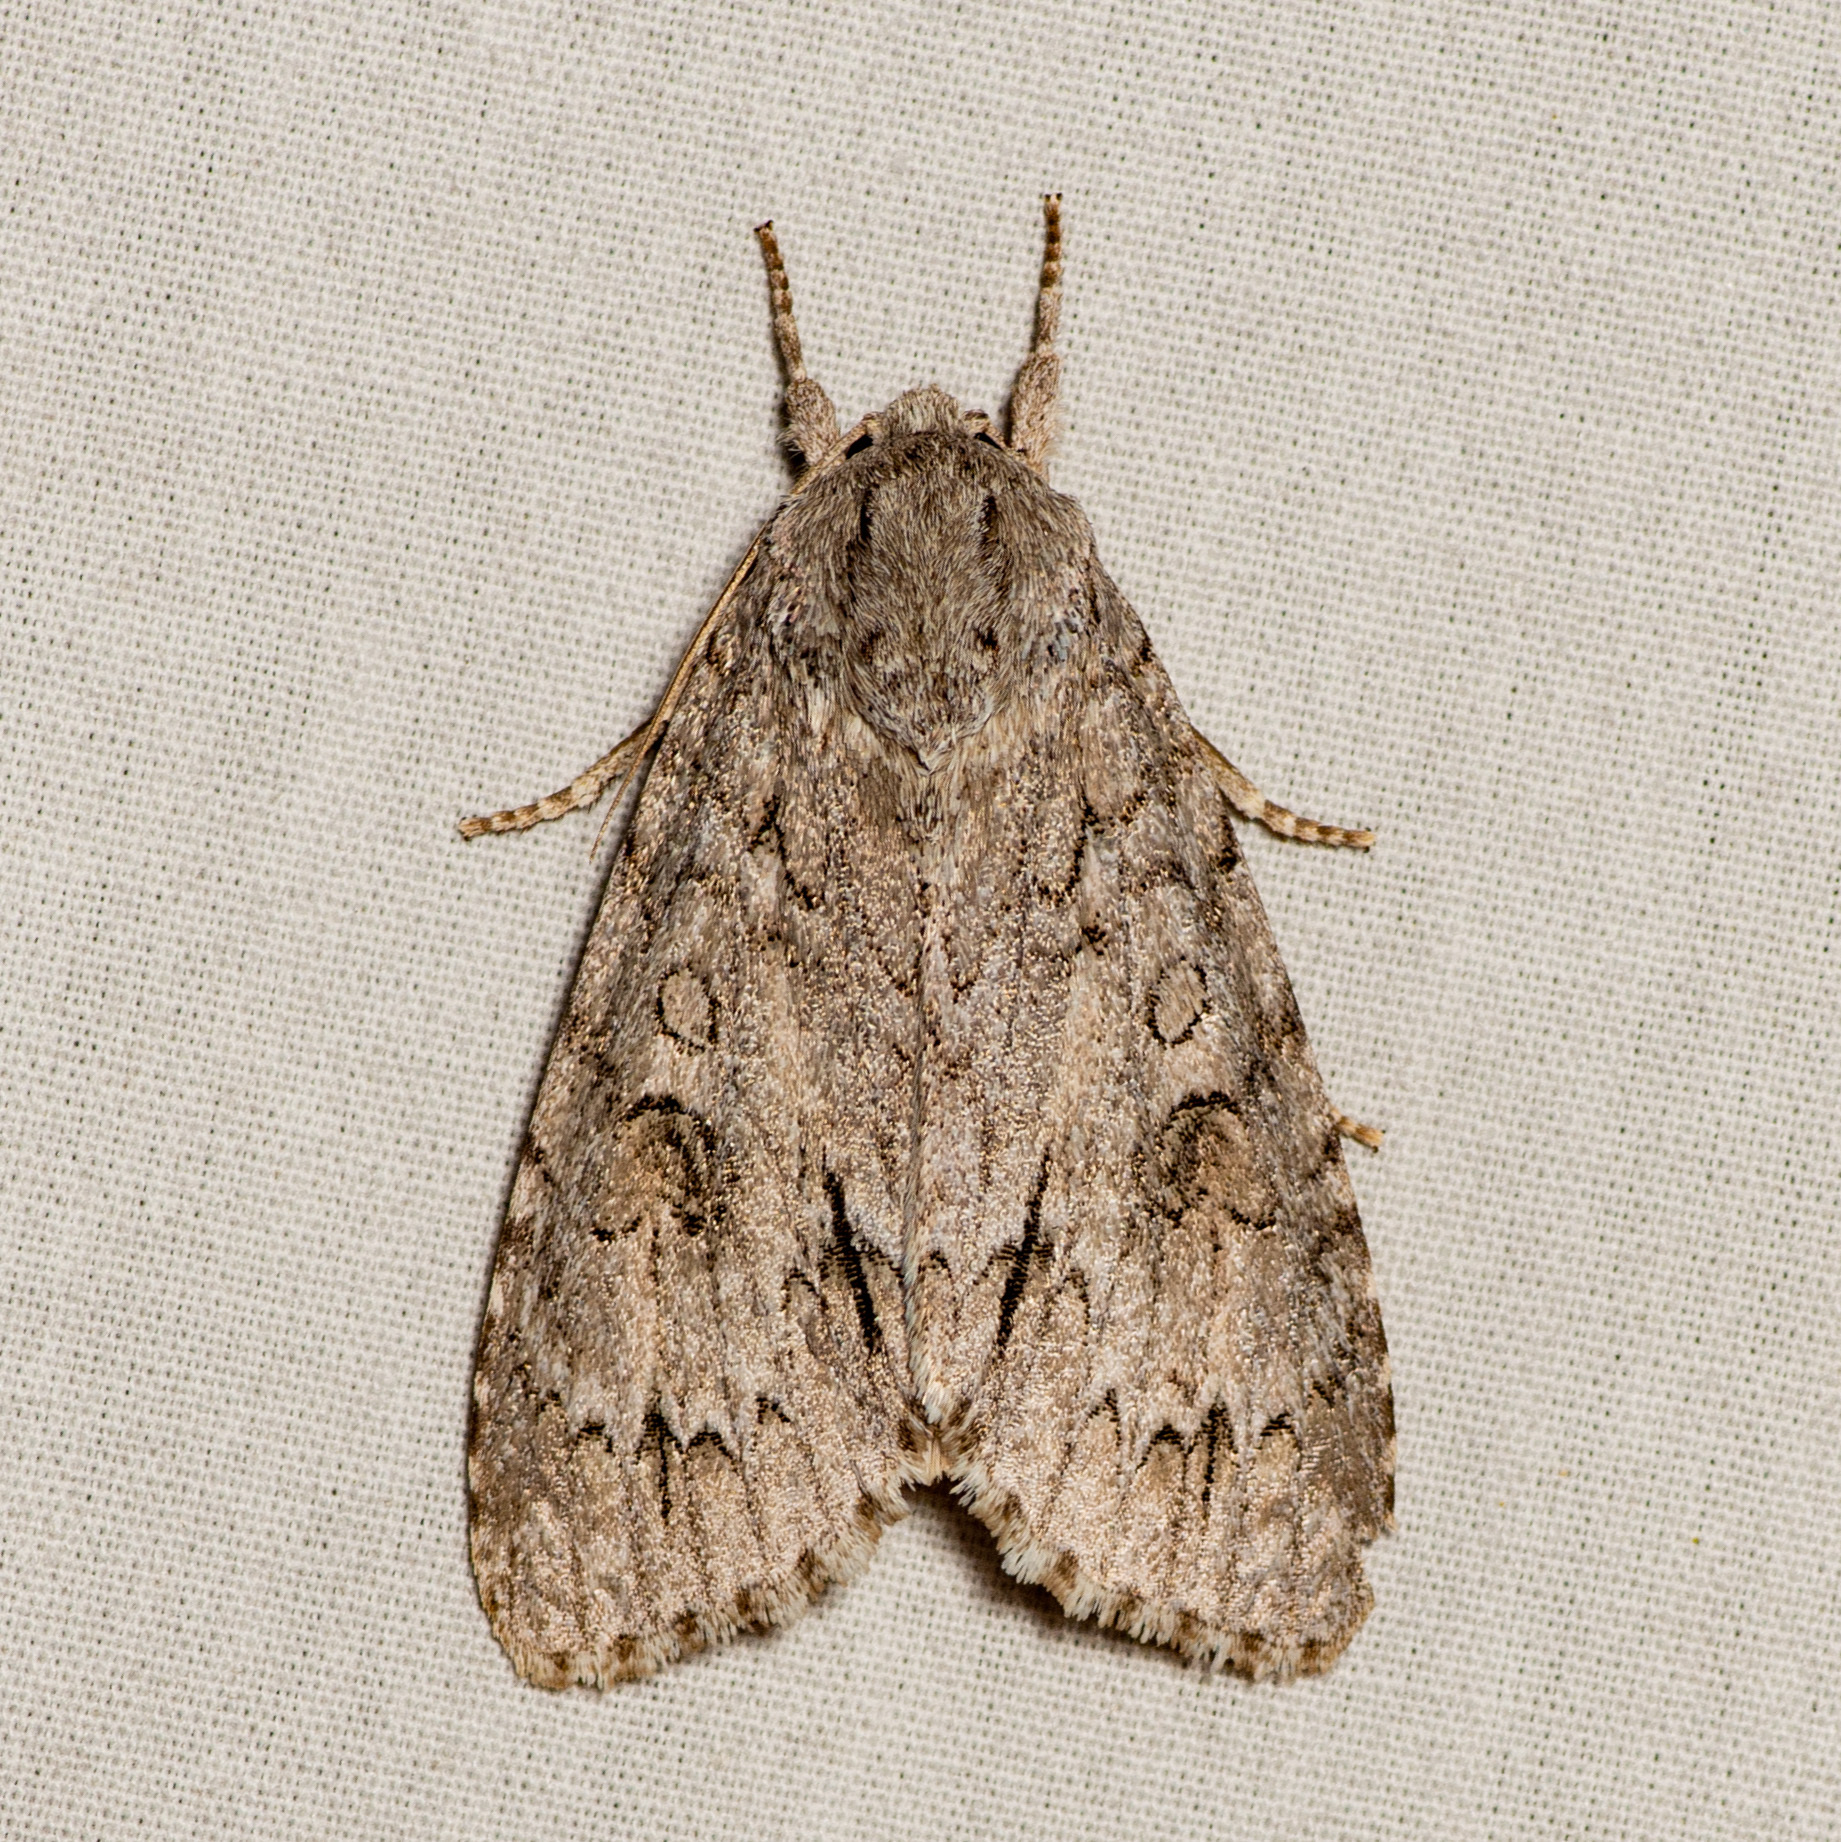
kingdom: Animalia
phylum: Arthropoda
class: Insecta
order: Lepidoptera
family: Noctuidae
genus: Acronicta
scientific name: Acronicta americana
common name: American dagger
